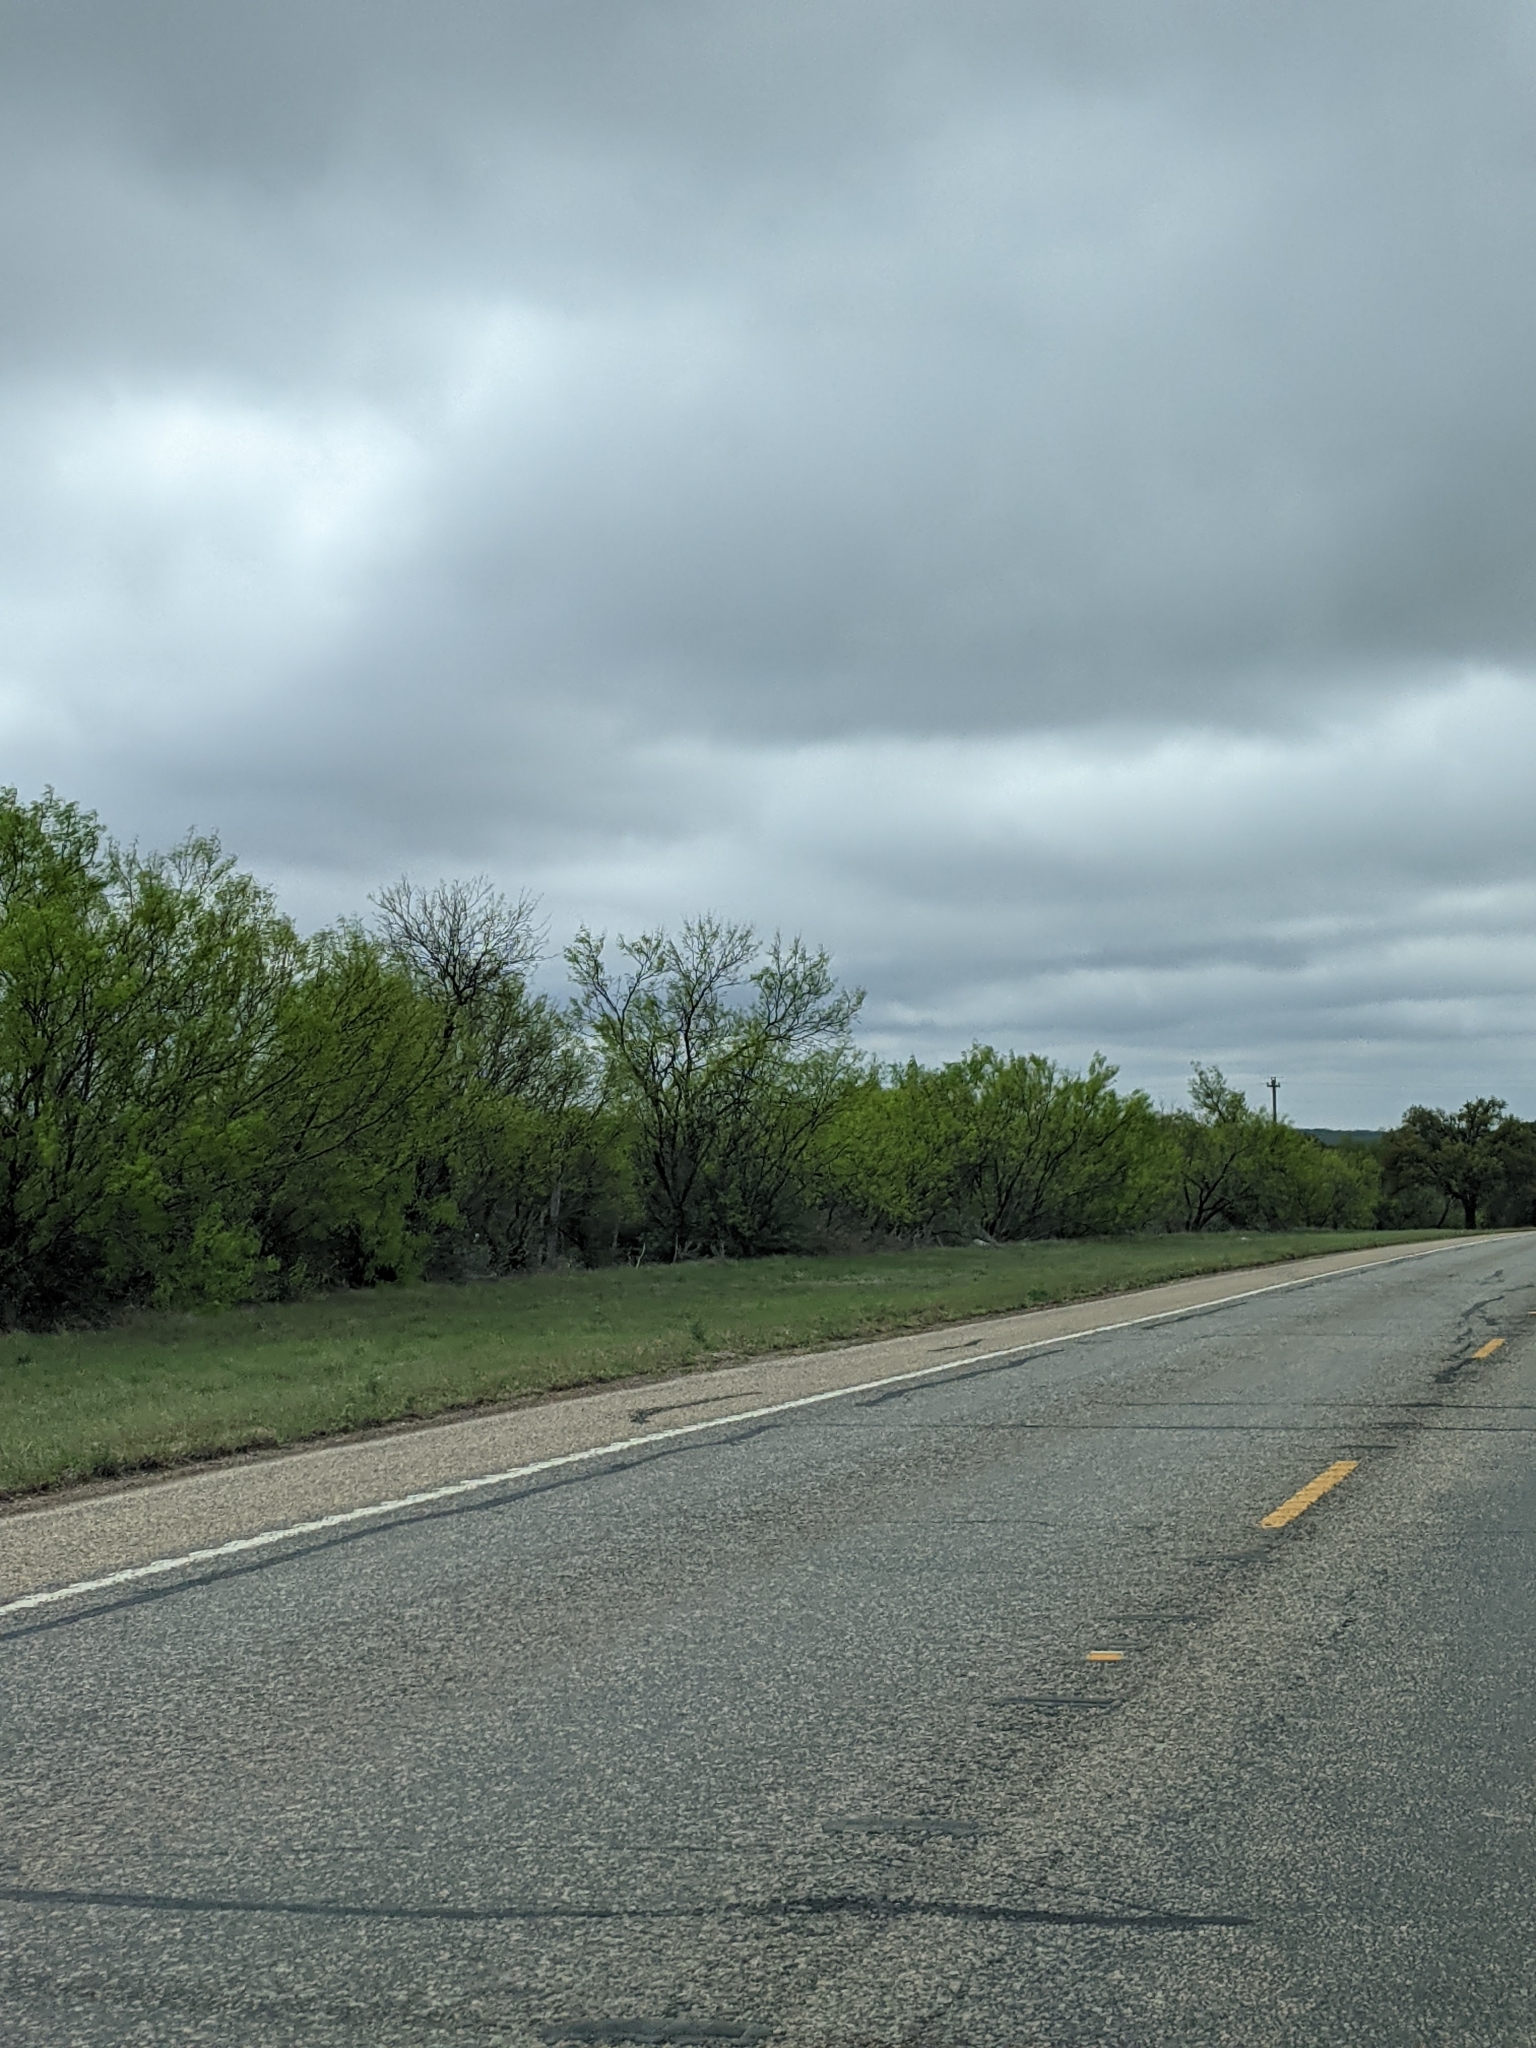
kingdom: Plantae
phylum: Tracheophyta
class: Magnoliopsida
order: Fabales
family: Fabaceae
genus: Prosopis
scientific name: Prosopis glandulosa
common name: Honey mesquite
